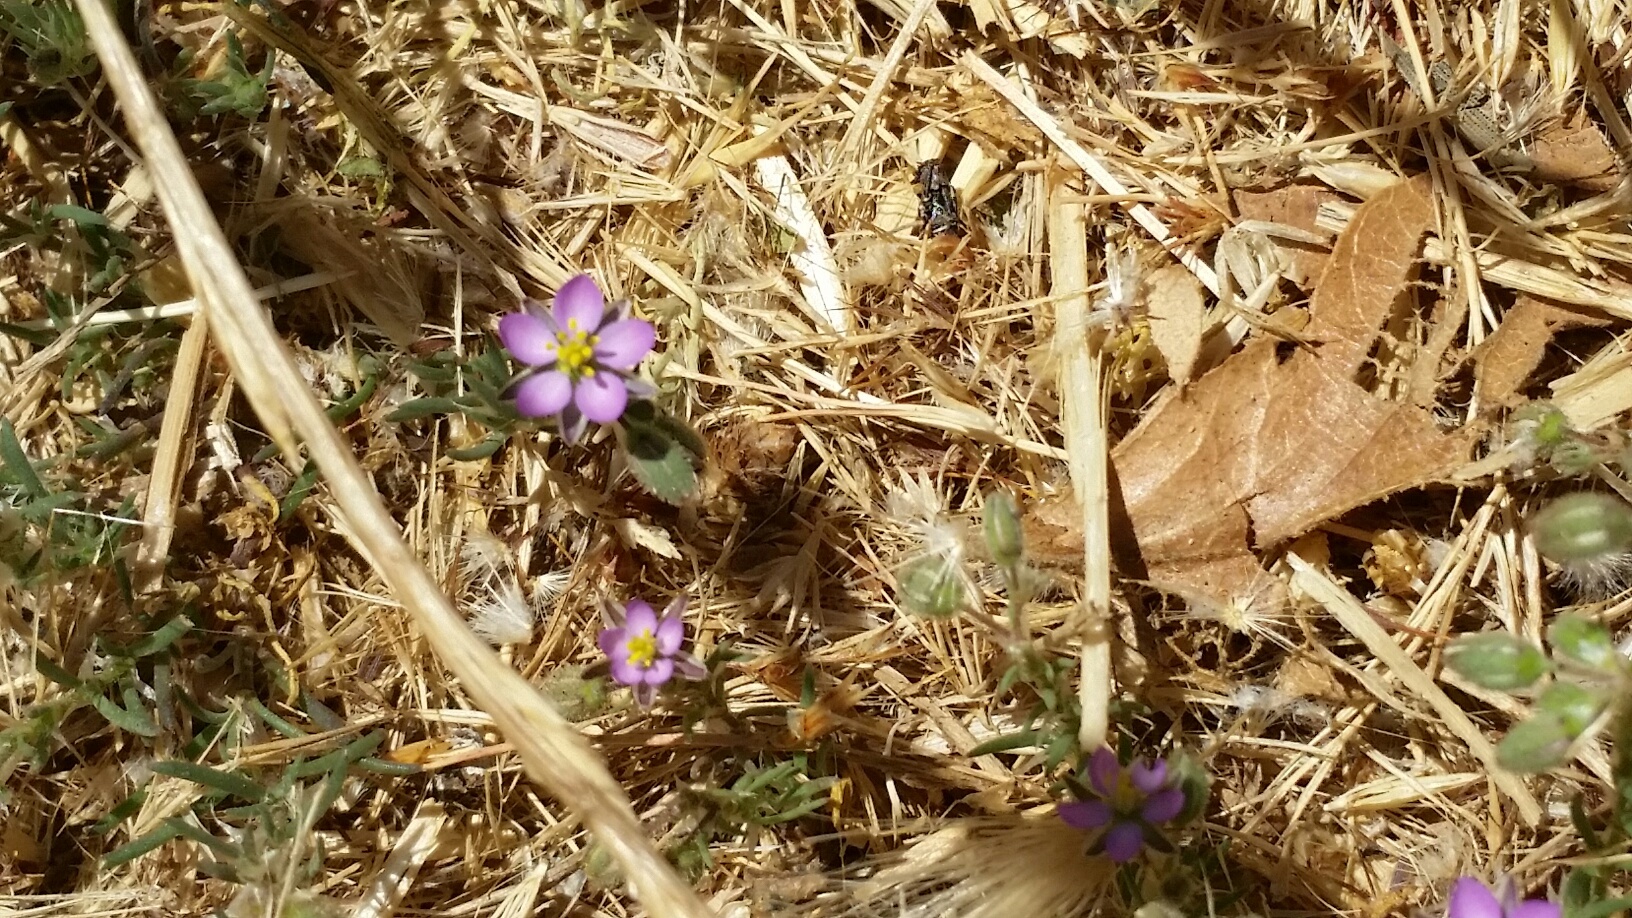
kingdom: Plantae
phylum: Tracheophyta
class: Magnoliopsida
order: Caryophyllales
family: Caryophyllaceae
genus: Spergularia
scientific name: Spergularia rubra
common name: Red sand-spurrey
